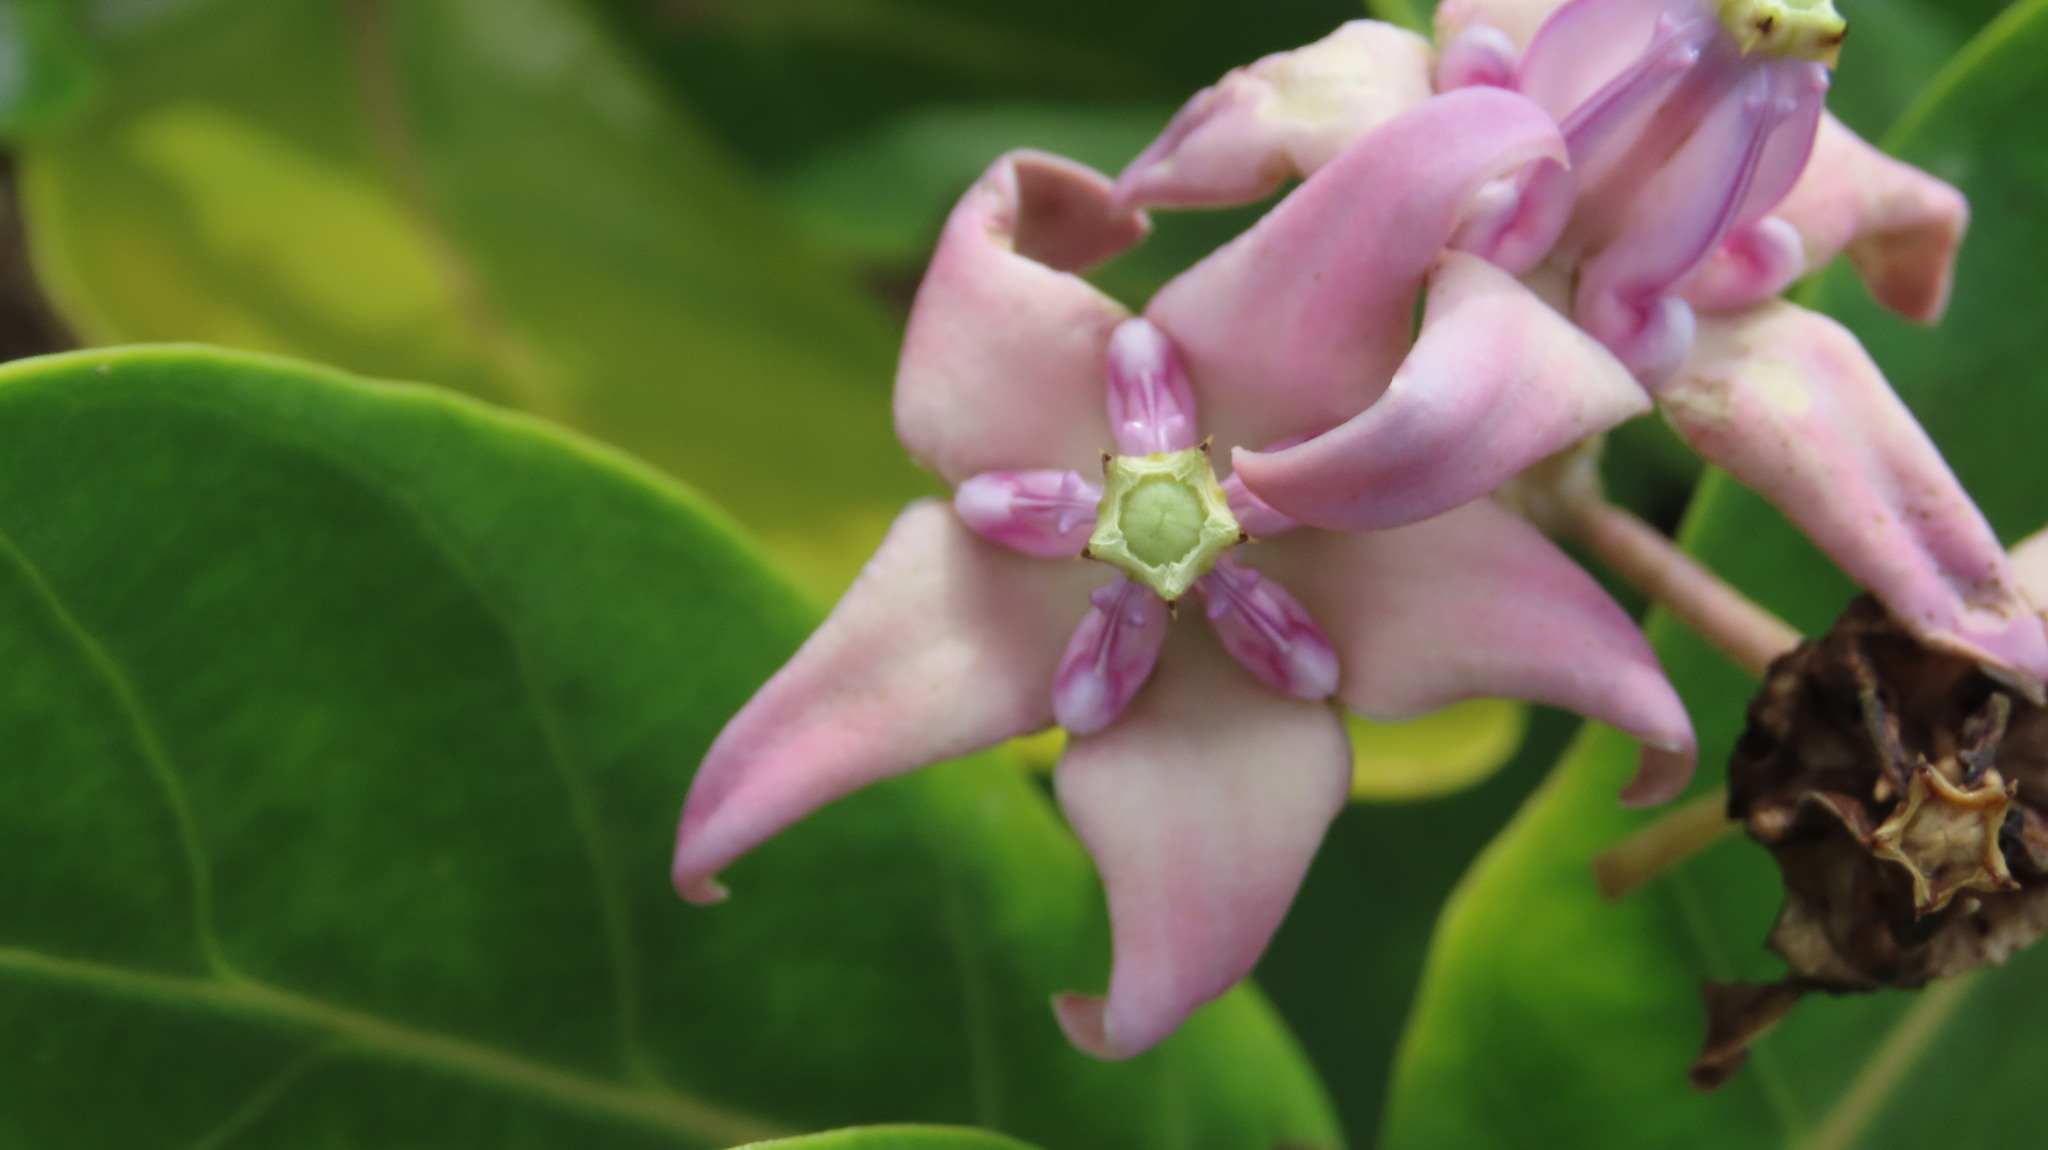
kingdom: Plantae
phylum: Tracheophyta
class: Magnoliopsida
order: Gentianales
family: Apocynaceae
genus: Calotropis
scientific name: Calotropis gigantea
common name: Crown flower
